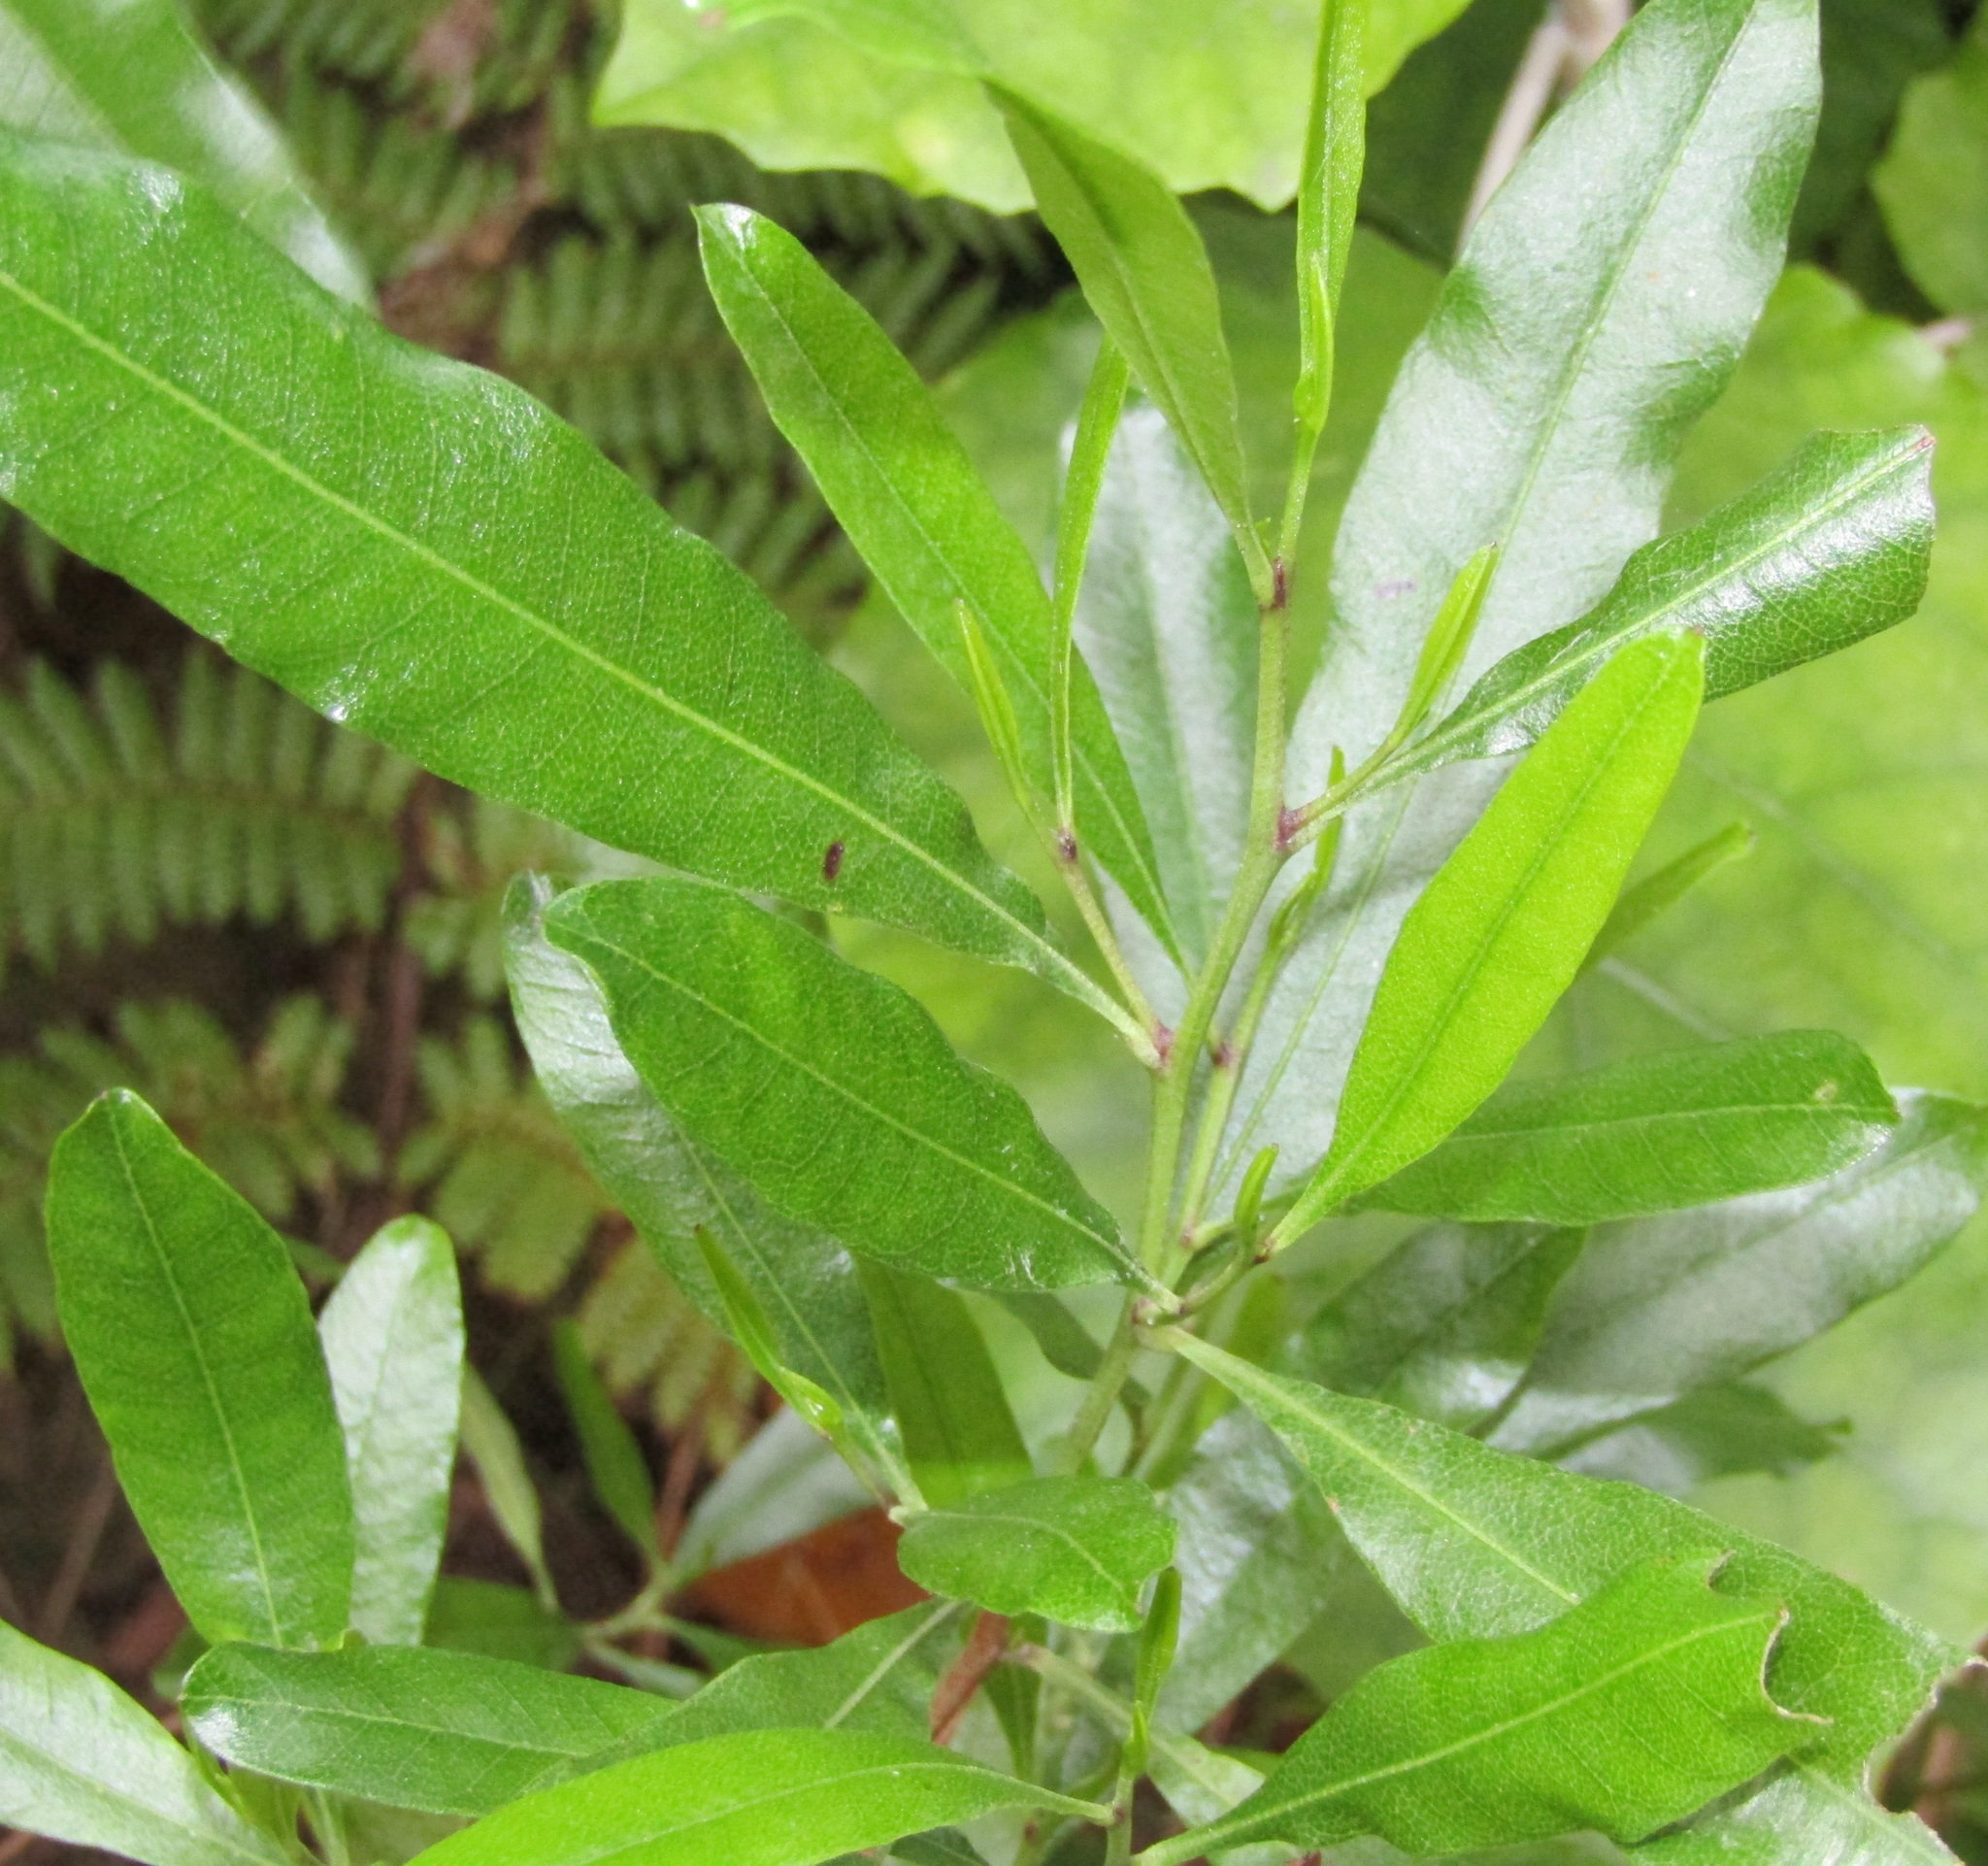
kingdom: Plantae
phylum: Tracheophyta
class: Magnoliopsida
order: Sapindales
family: Sapindaceae
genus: Dodonaea
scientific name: Dodonaea viscosa
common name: Hopbush
